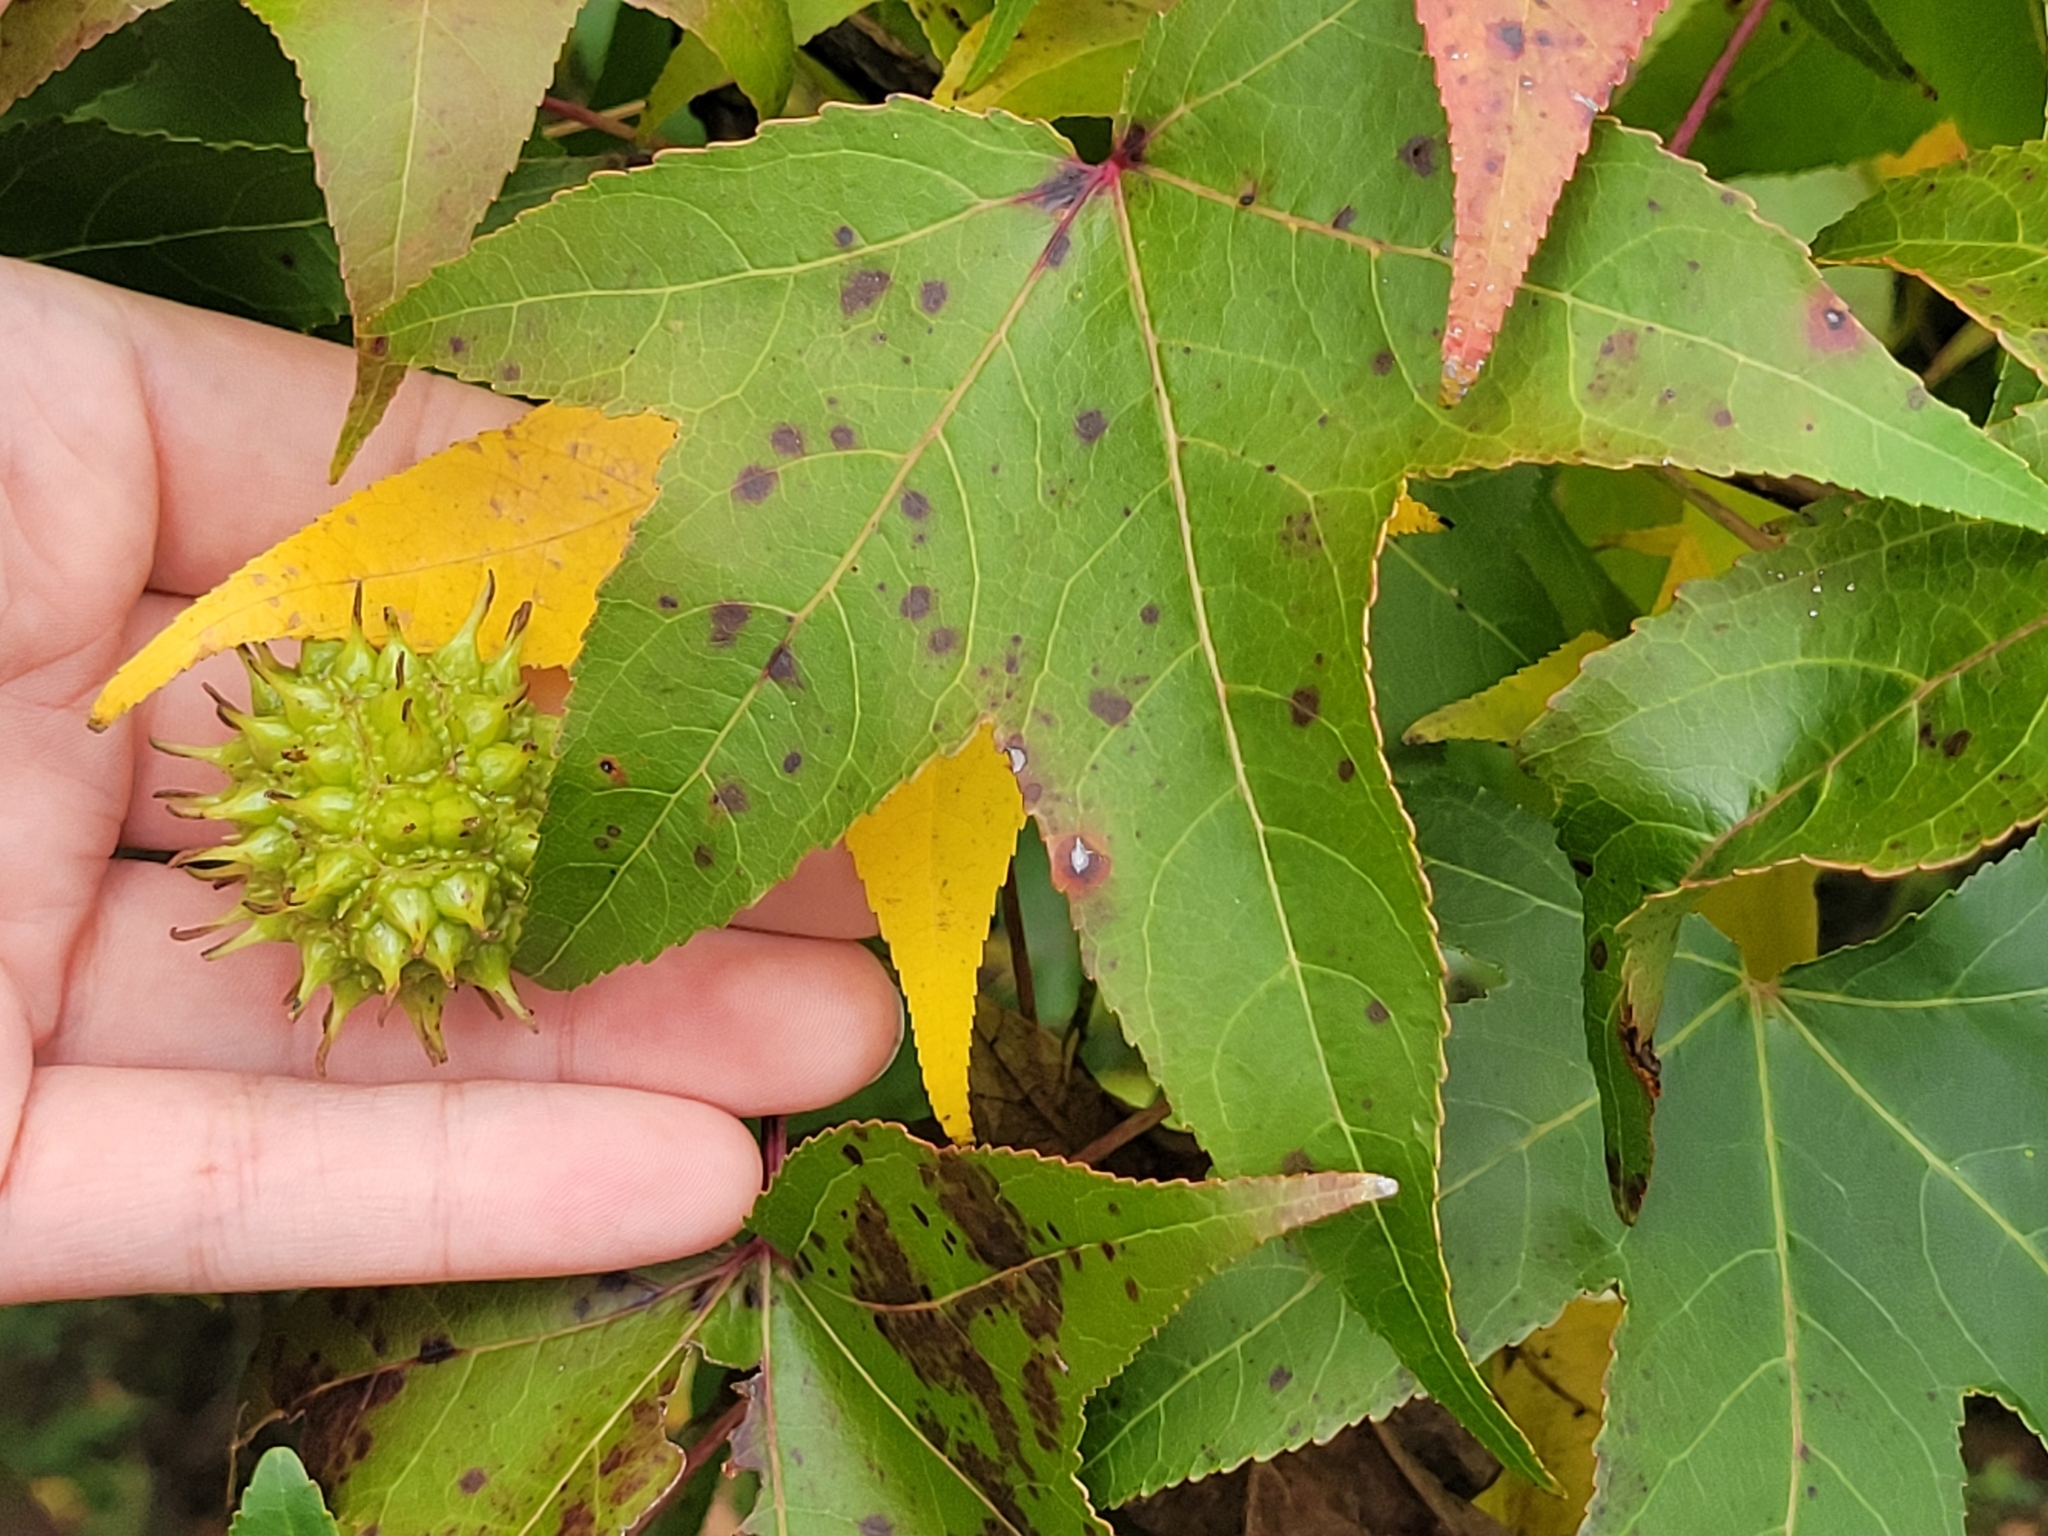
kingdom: Plantae
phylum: Tracheophyta
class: Magnoliopsida
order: Saxifragales
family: Altingiaceae
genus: Liquidambar
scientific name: Liquidambar styraciflua
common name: Sweet gum
